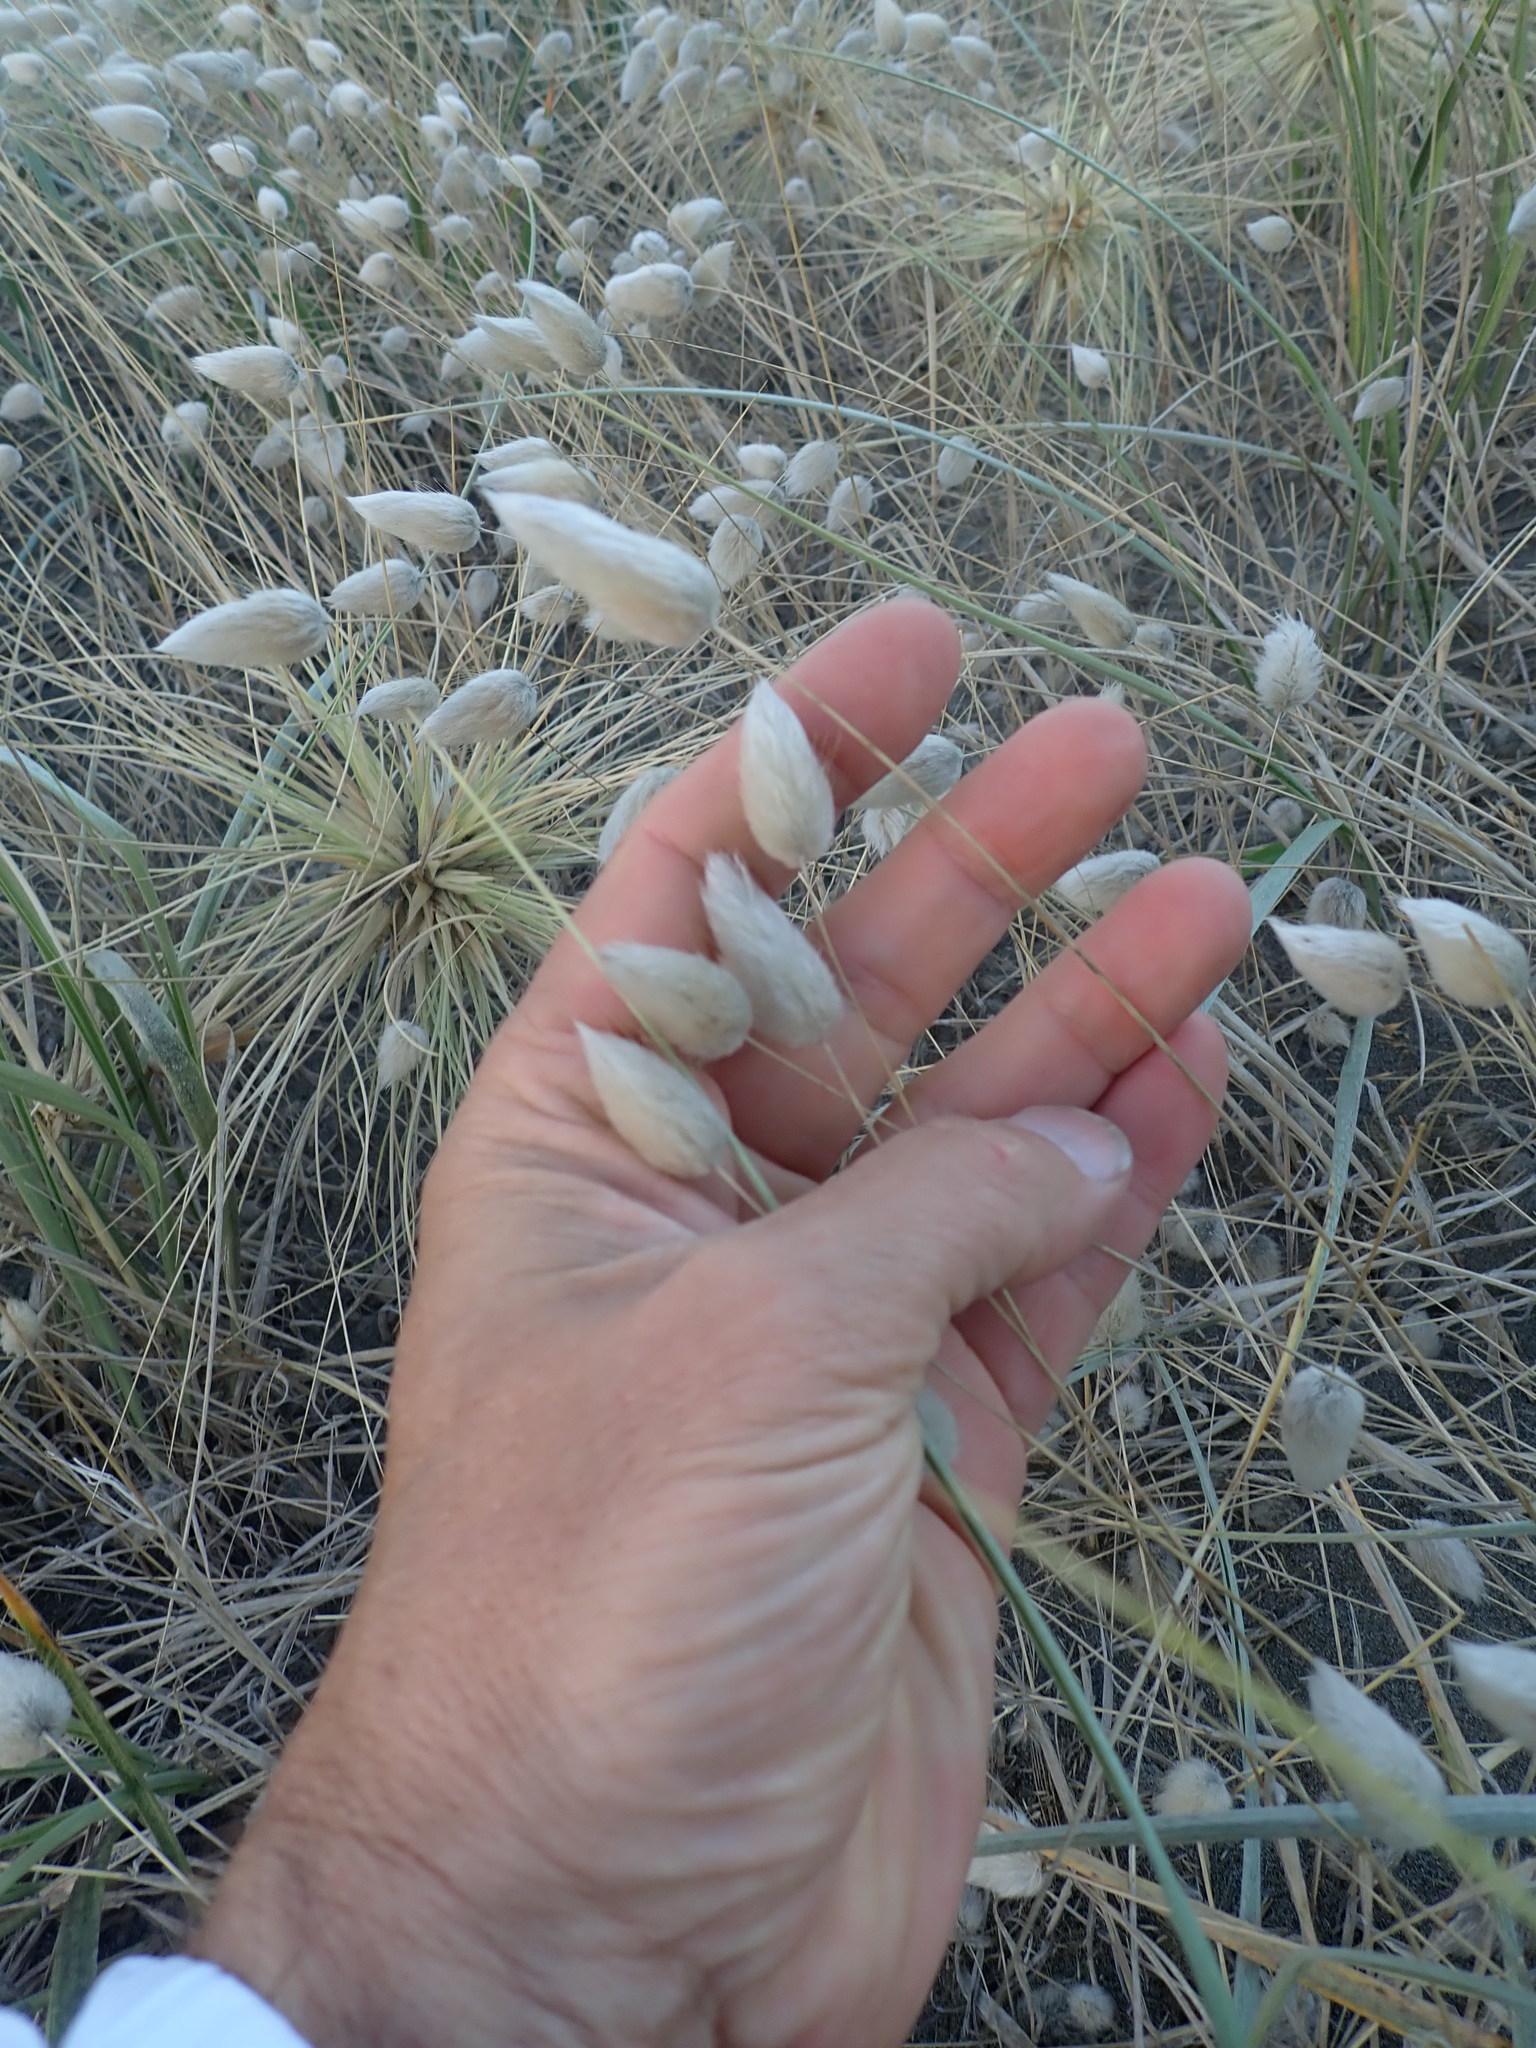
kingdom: Plantae
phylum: Tracheophyta
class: Liliopsida
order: Poales
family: Poaceae
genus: Lagurus
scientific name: Lagurus ovatus
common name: Hare's-tail
